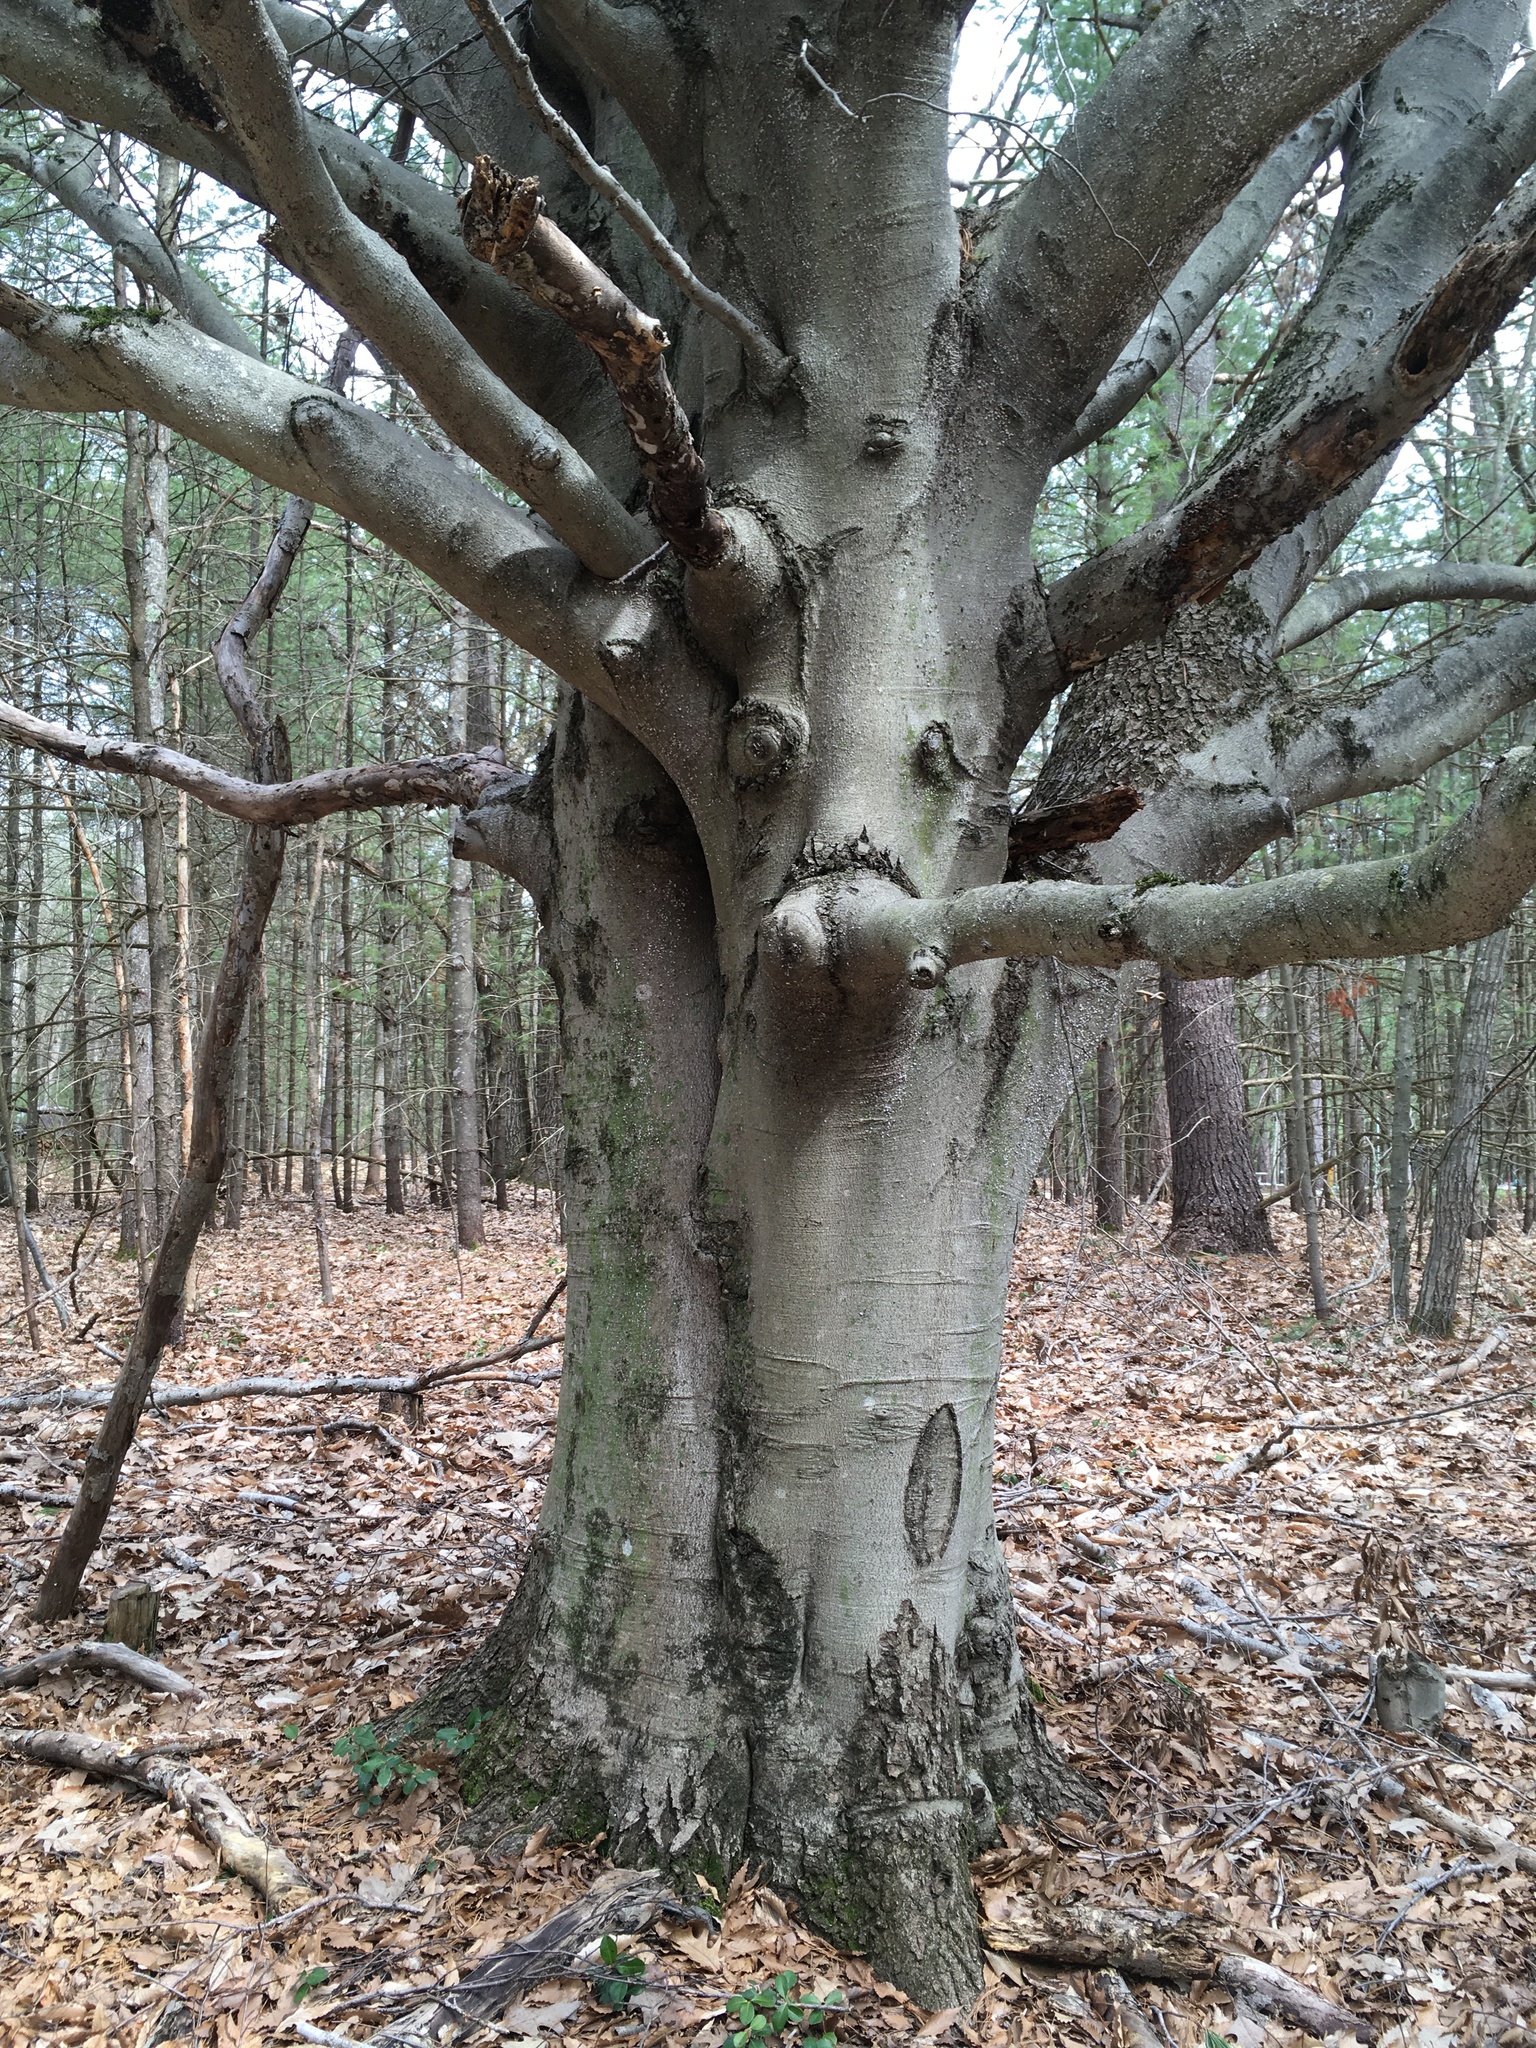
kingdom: Plantae
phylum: Tracheophyta
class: Magnoliopsida
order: Fagales
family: Fagaceae
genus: Fagus
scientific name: Fagus grandifolia
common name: American beech
